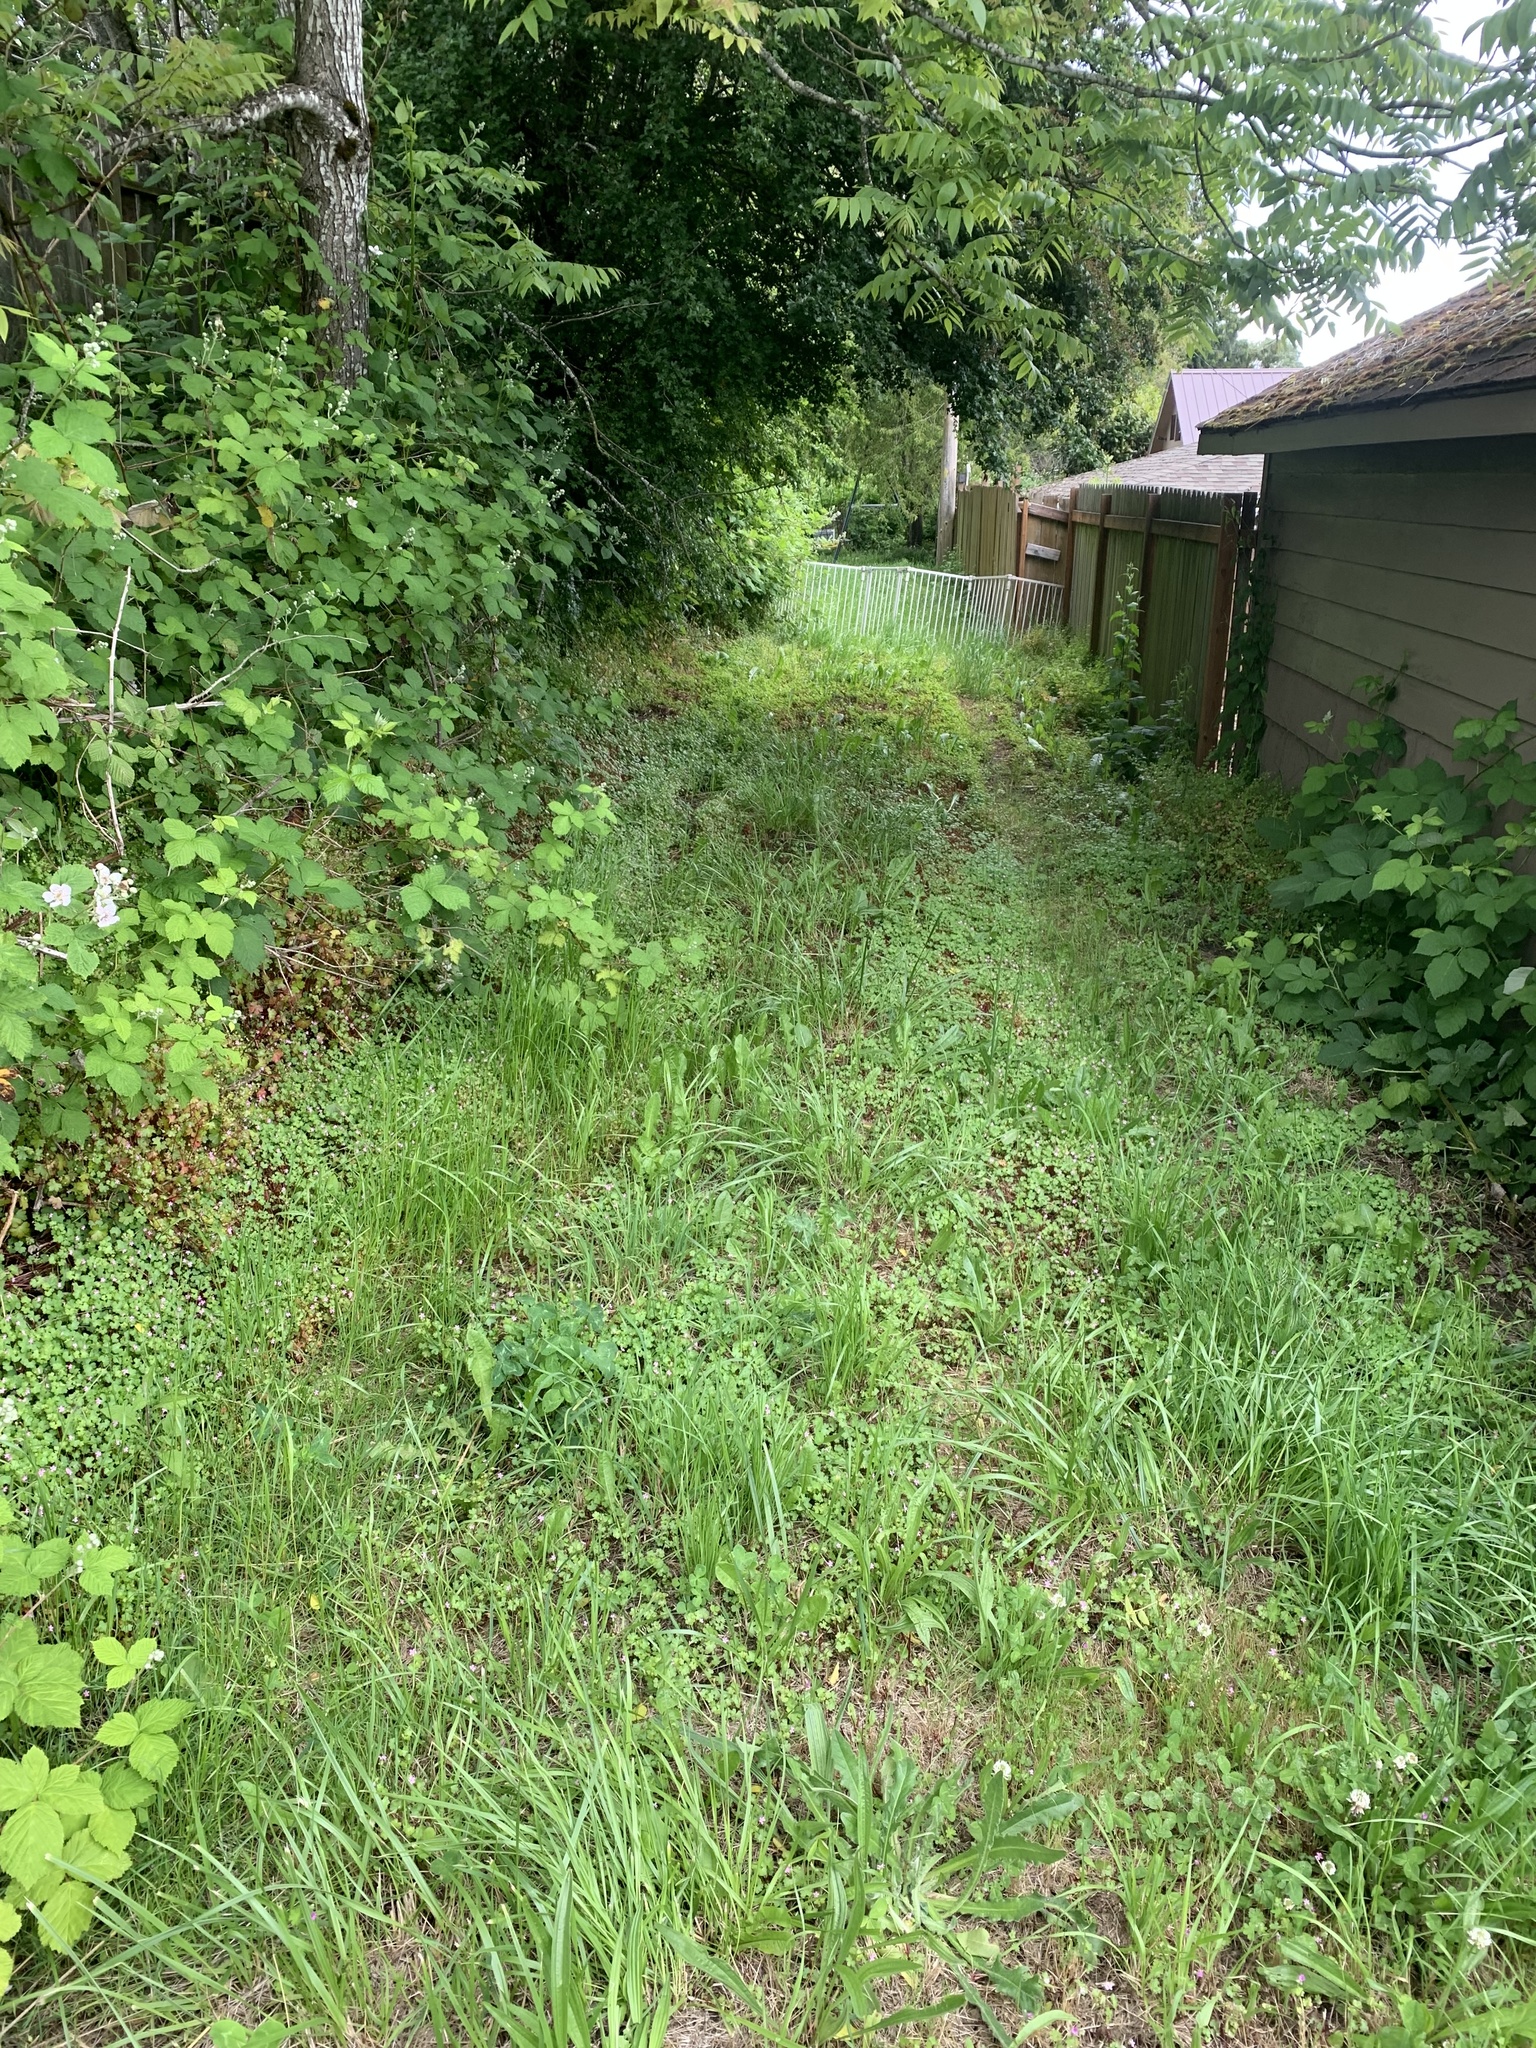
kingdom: Plantae
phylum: Tracheophyta
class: Magnoliopsida
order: Geraniales
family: Geraniaceae
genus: Geranium
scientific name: Geranium lucidum
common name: Shining crane's-bill
